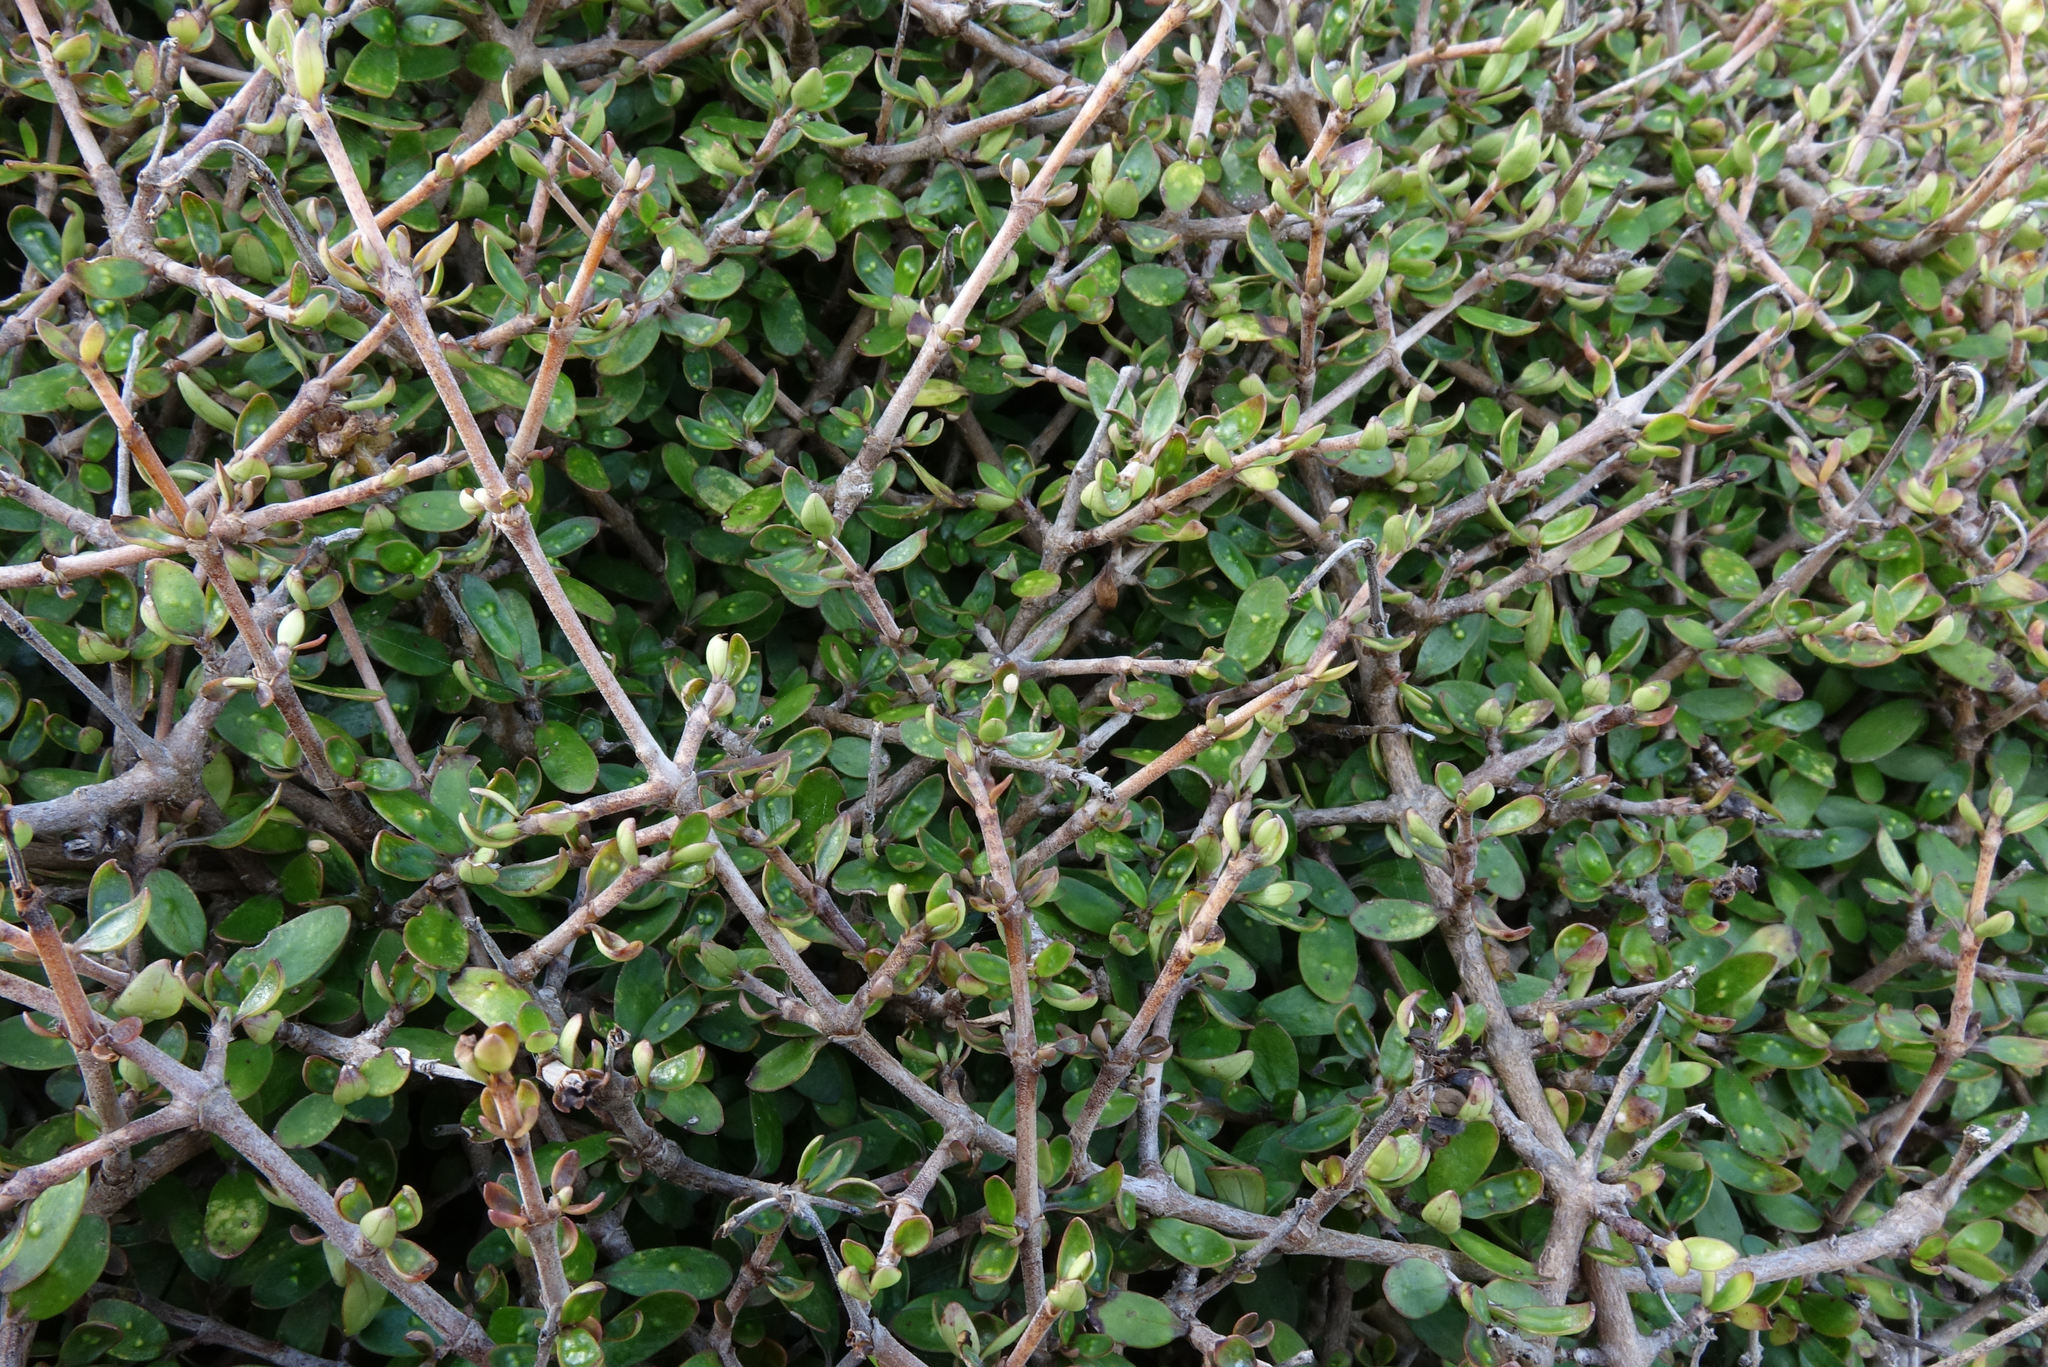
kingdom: Plantae
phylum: Tracheophyta
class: Magnoliopsida
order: Gentianales
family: Rubiaceae
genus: Coprosma
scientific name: Coprosma propinqua
